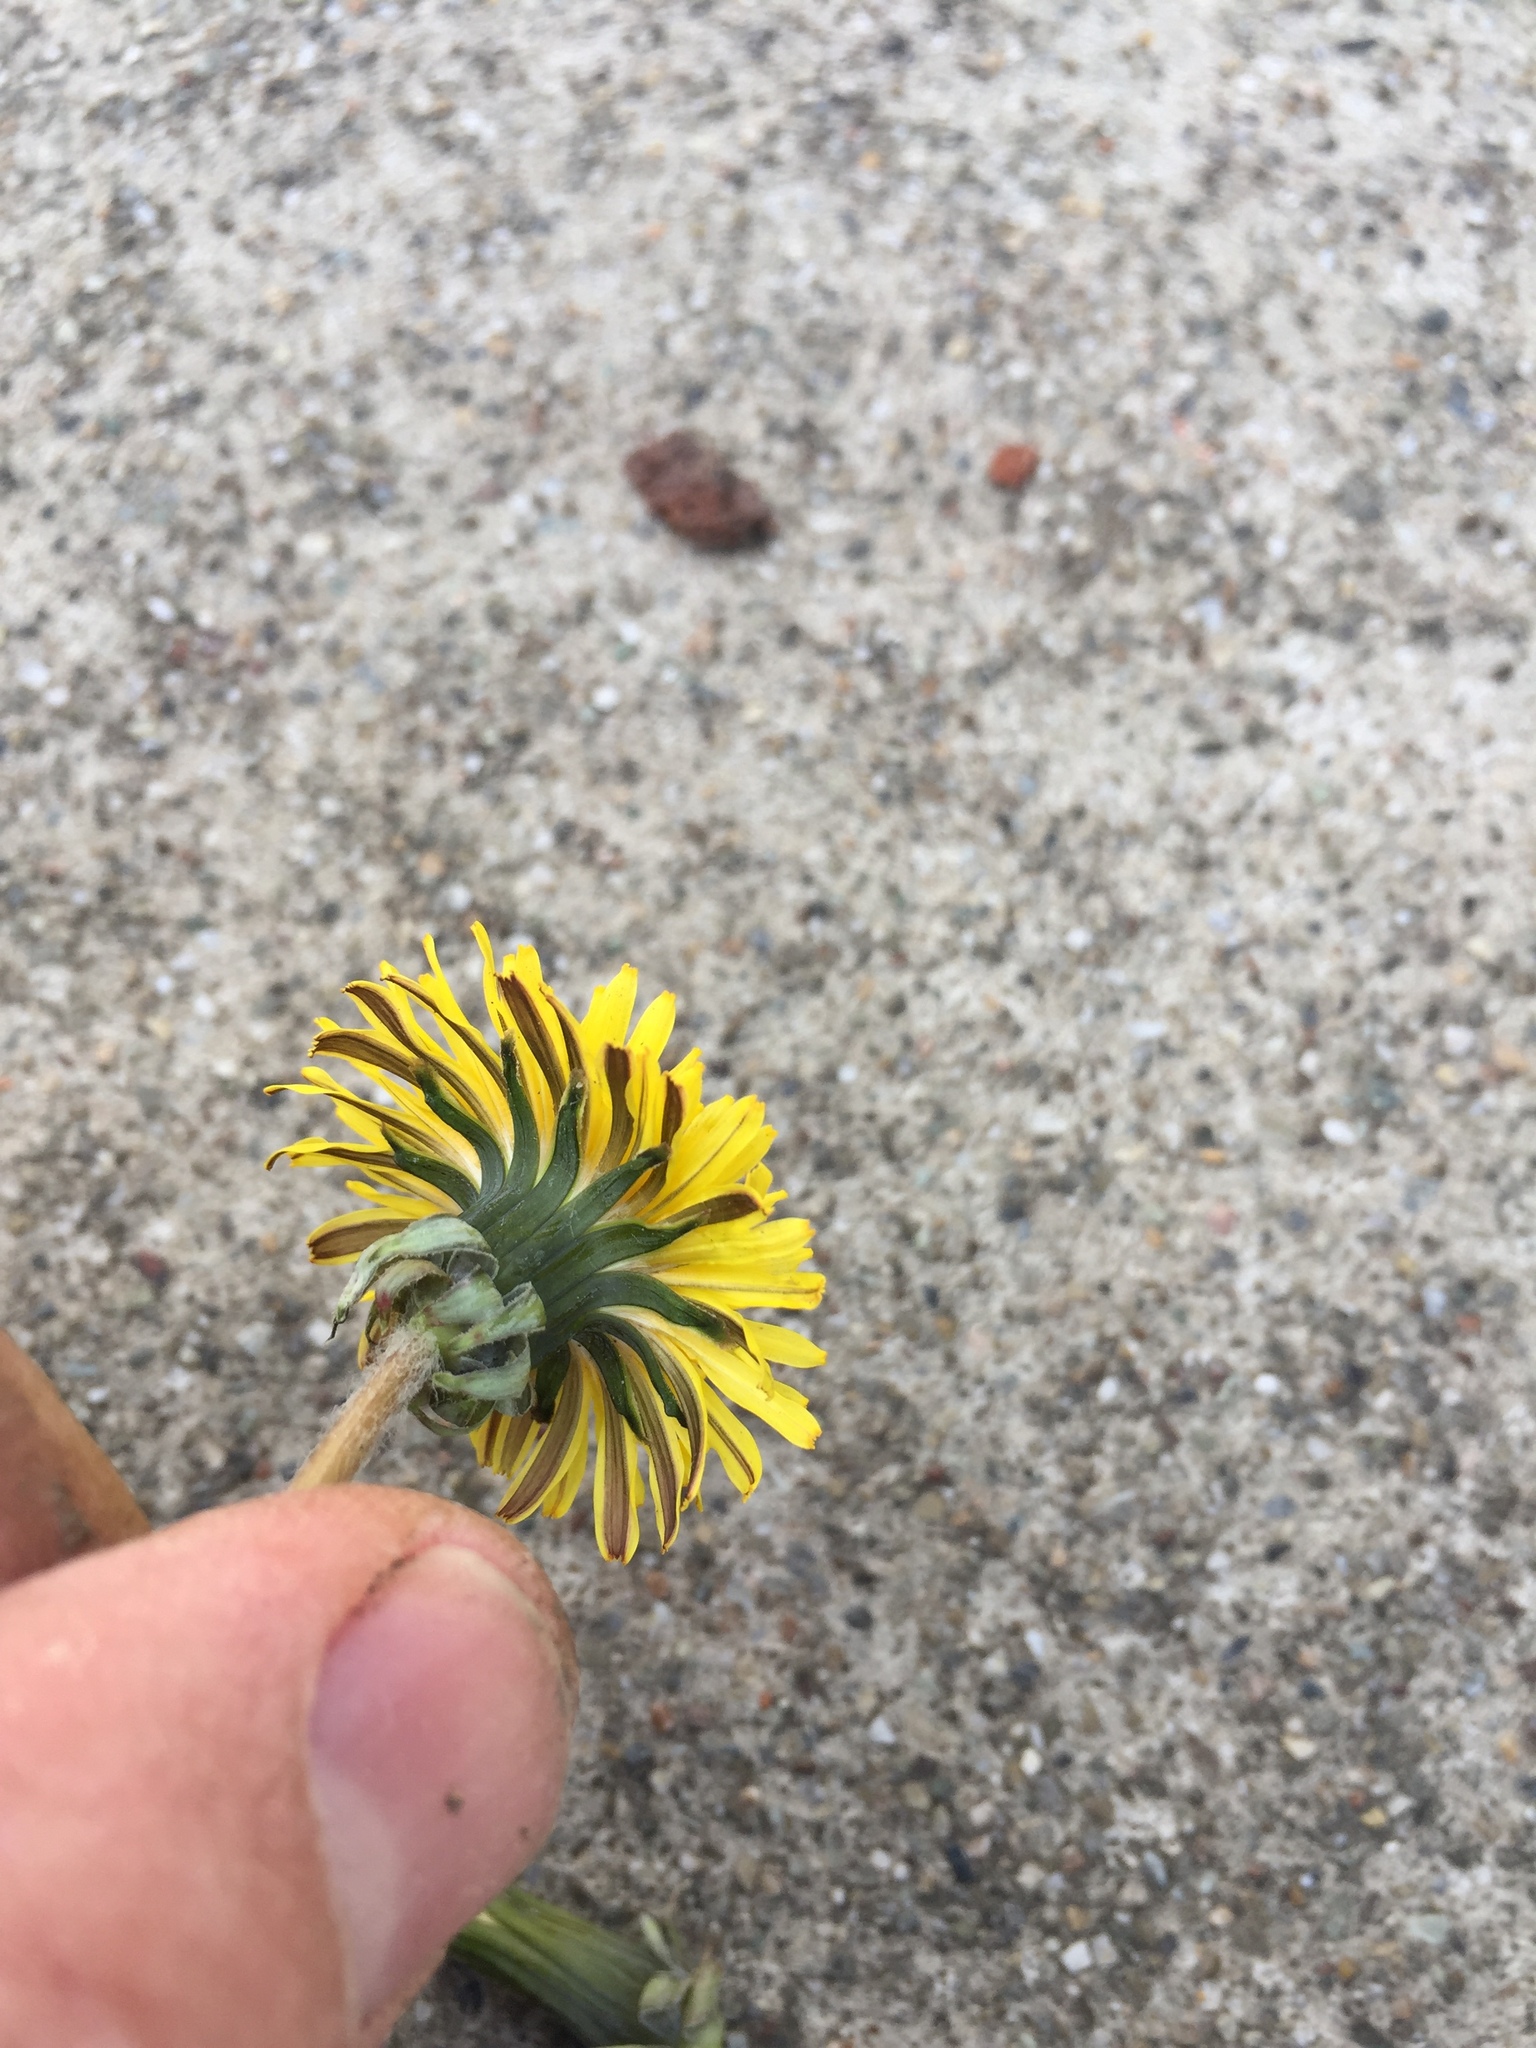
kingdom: Plantae
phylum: Tracheophyta
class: Magnoliopsida
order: Asterales
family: Asteraceae
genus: Taraxacum
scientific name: Taraxacum erythrospermum
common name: Rock dandelion
